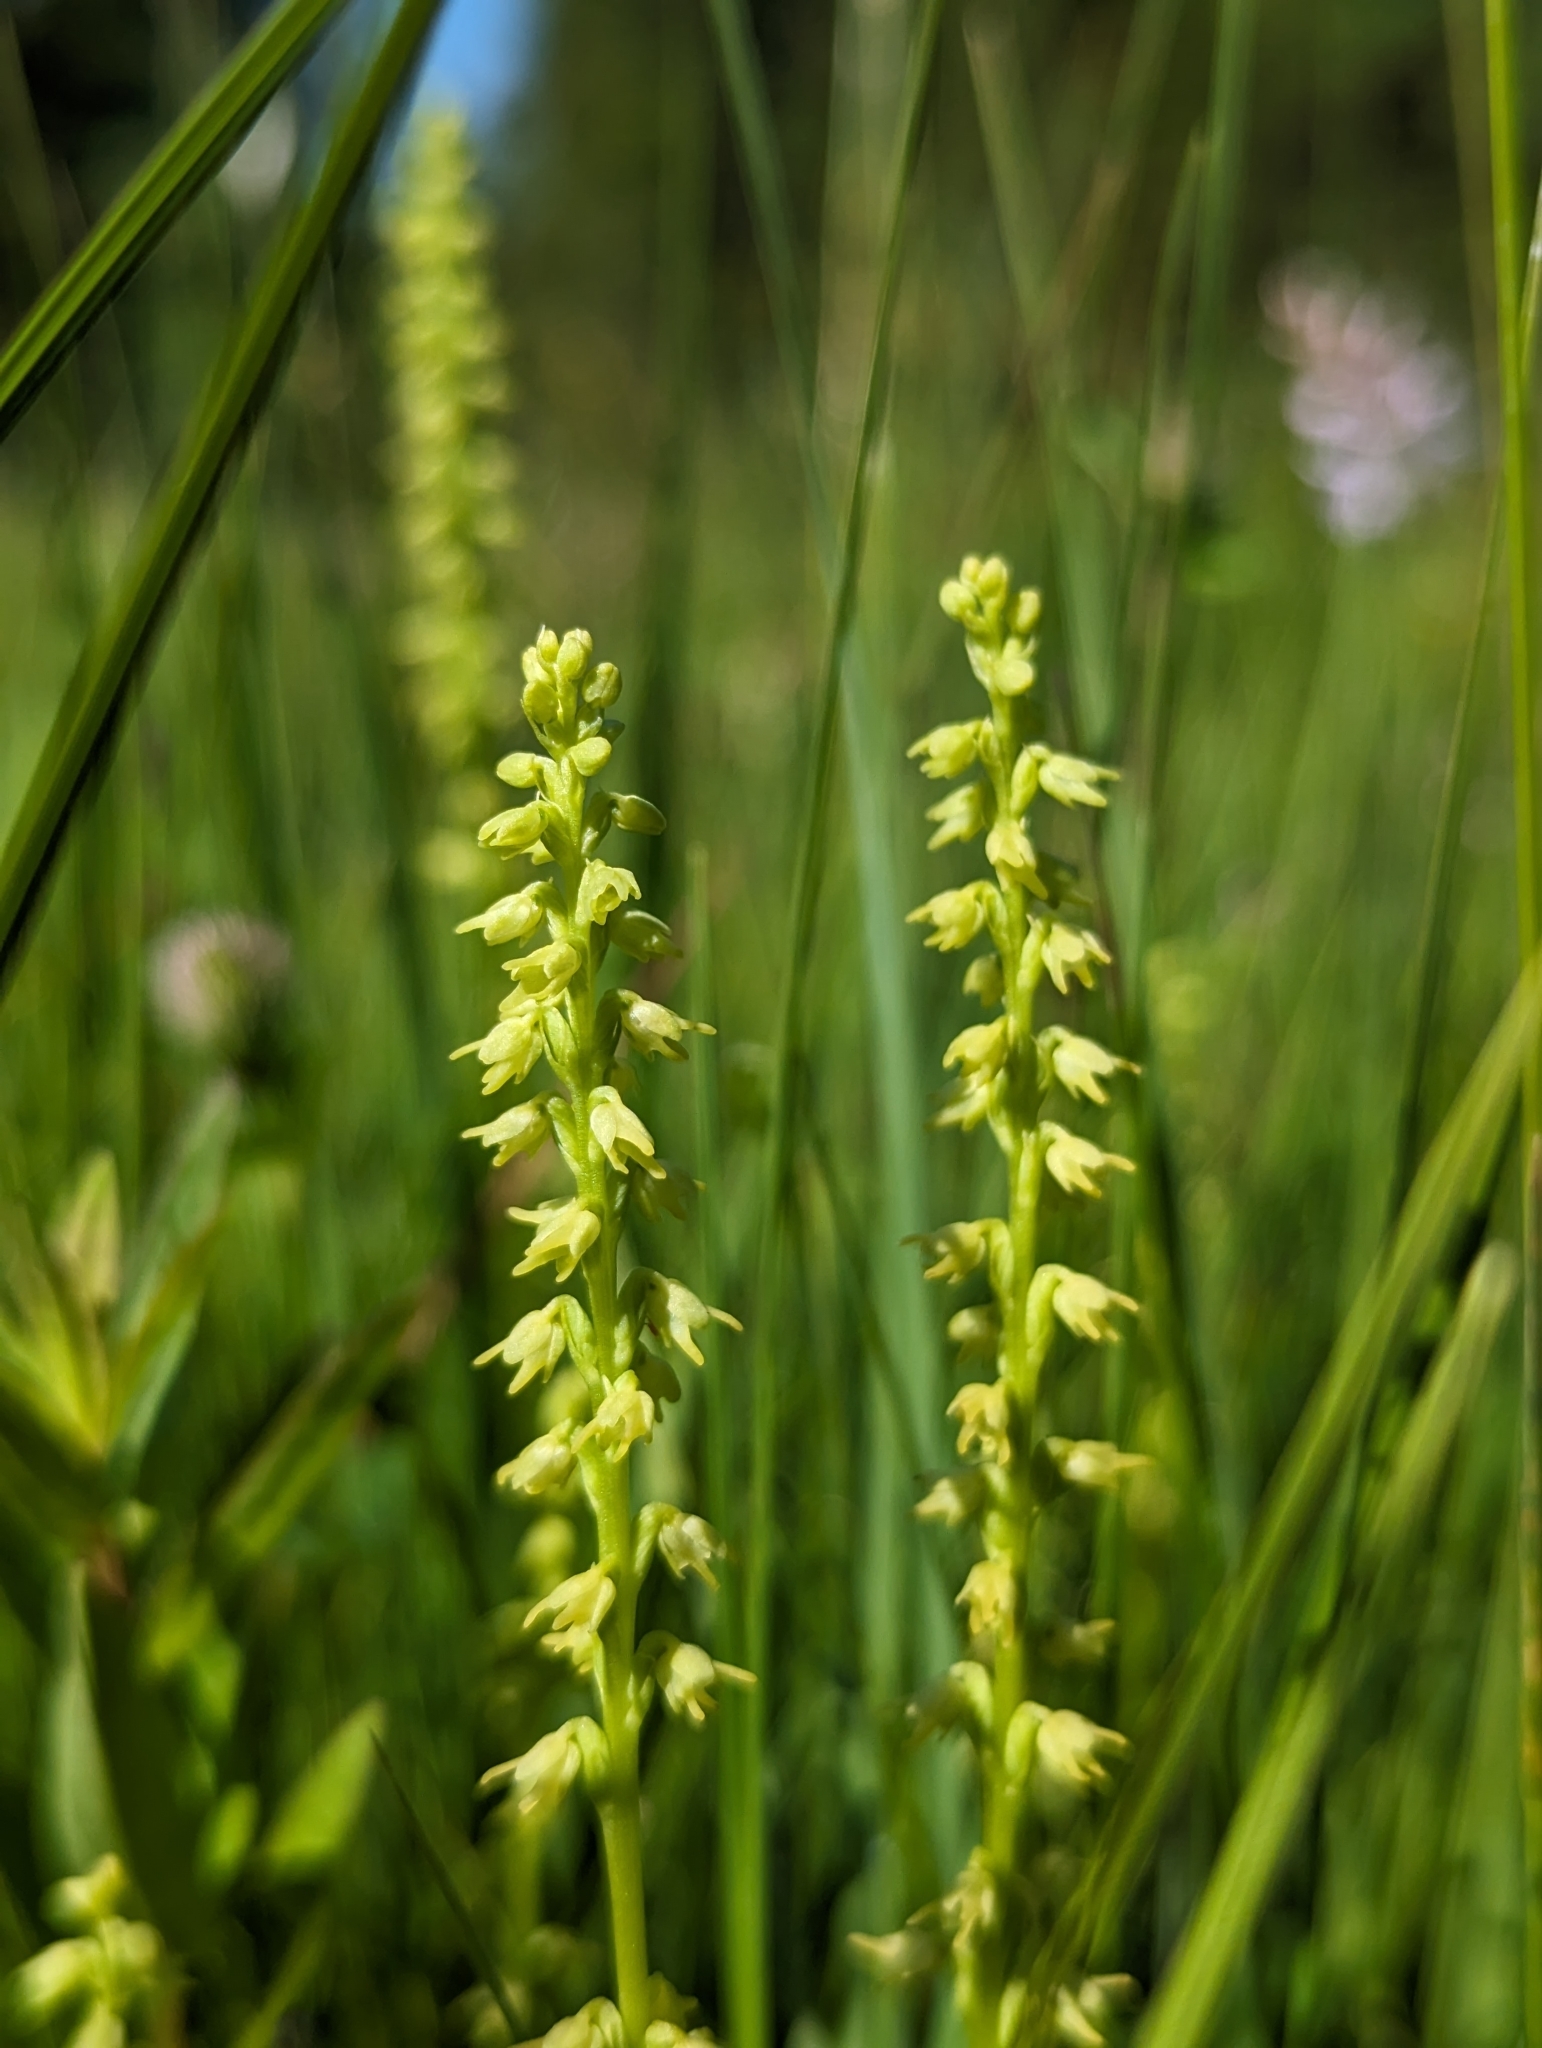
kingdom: Plantae
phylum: Tracheophyta
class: Liliopsida
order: Asparagales
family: Orchidaceae
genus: Herminium
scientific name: Herminium monorchis
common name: Musk orchid
